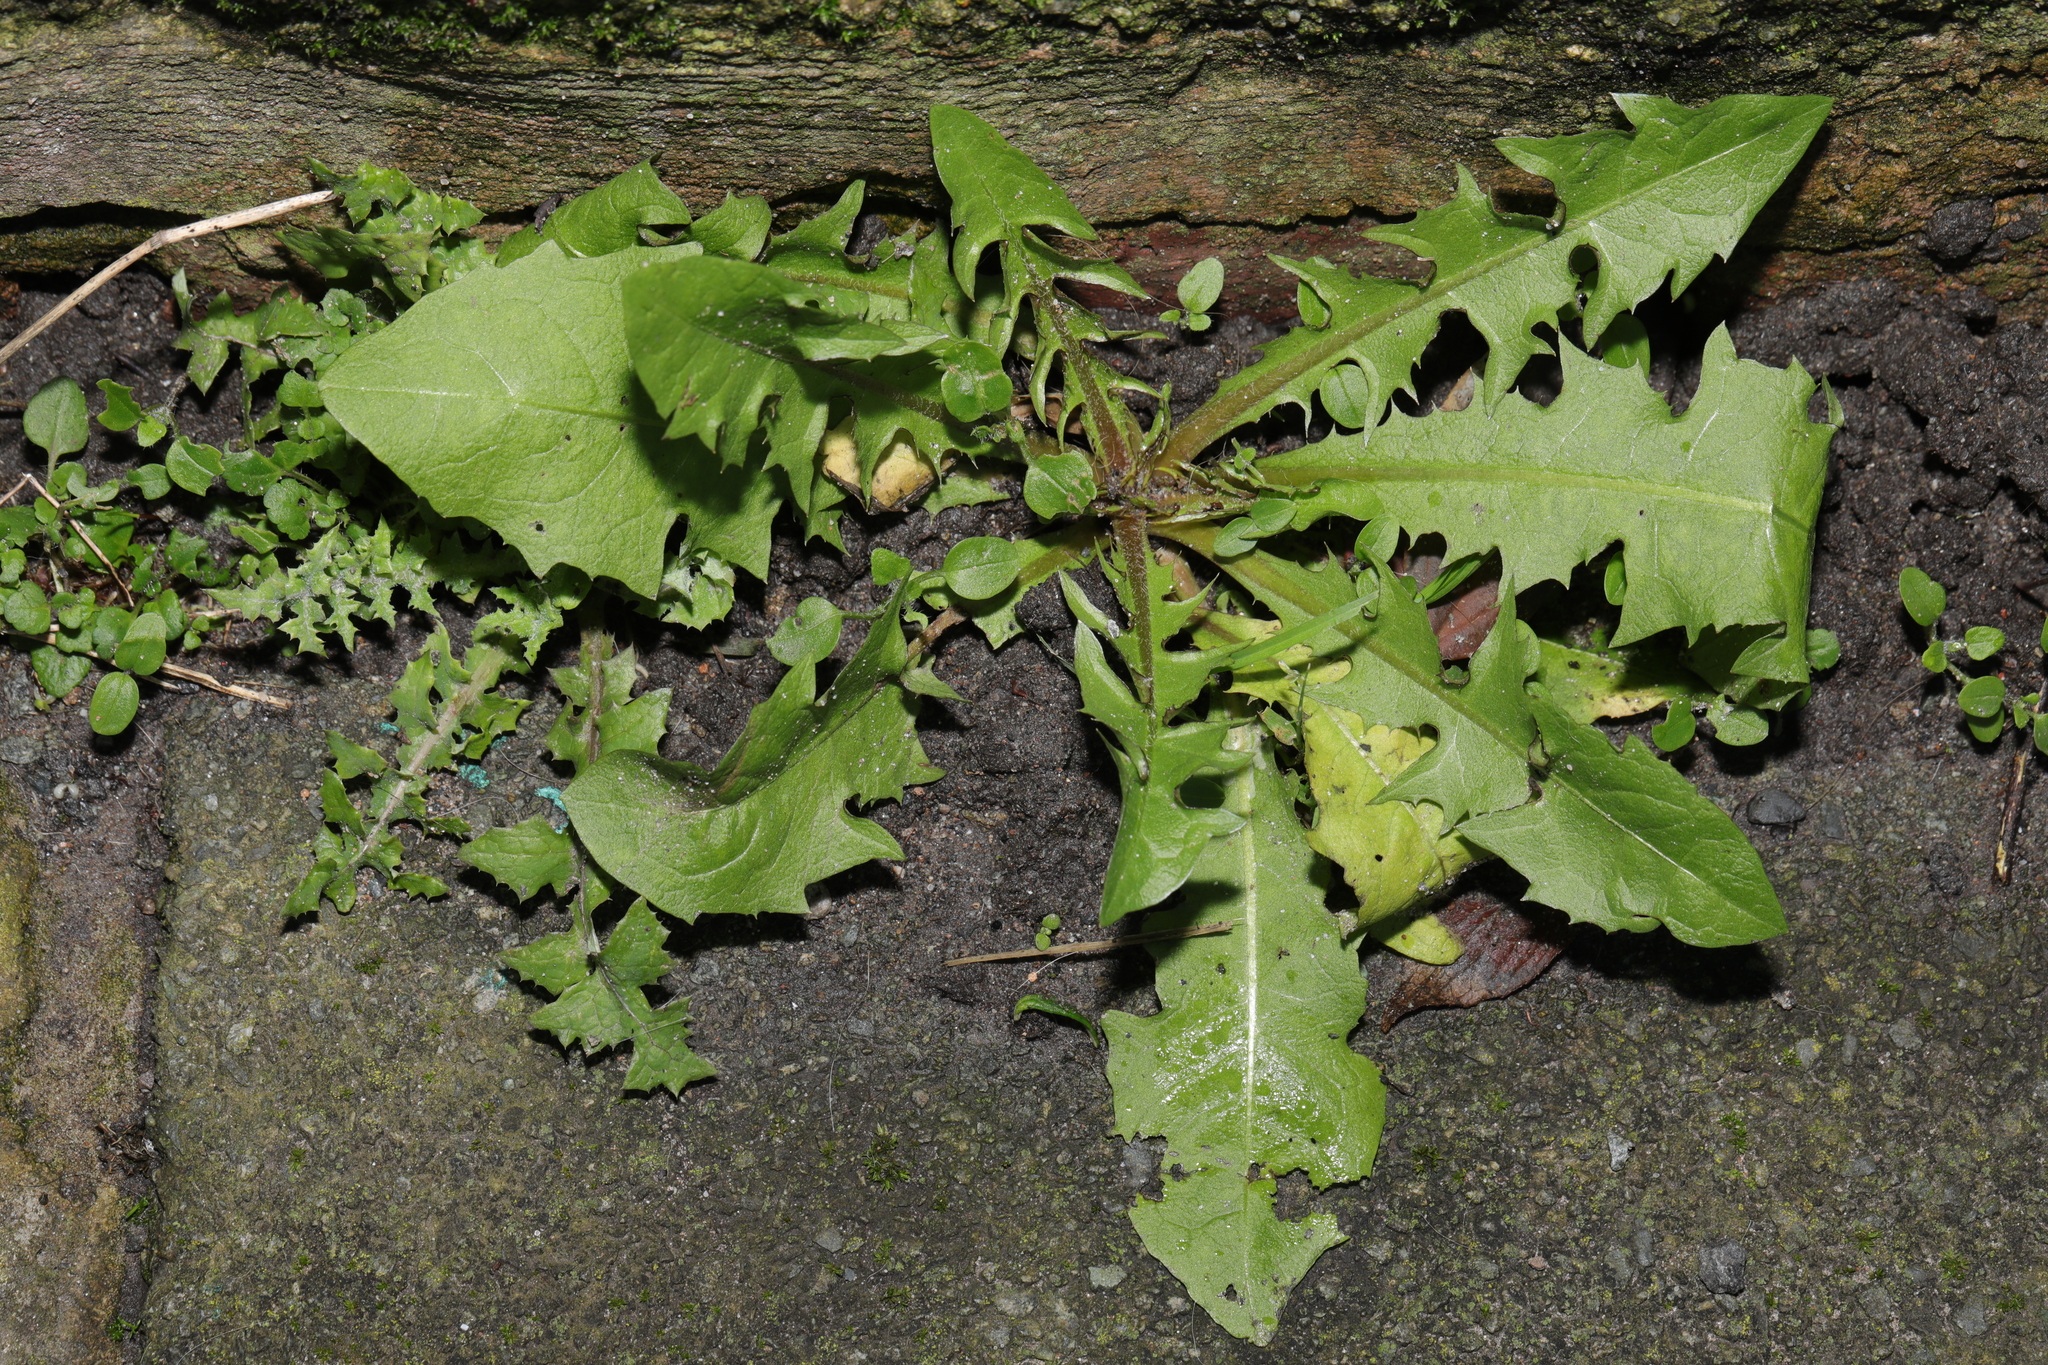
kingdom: Plantae
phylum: Tracheophyta
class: Magnoliopsida
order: Asterales
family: Asteraceae
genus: Taraxacum
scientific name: Taraxacum officinale
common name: Common dandelion
